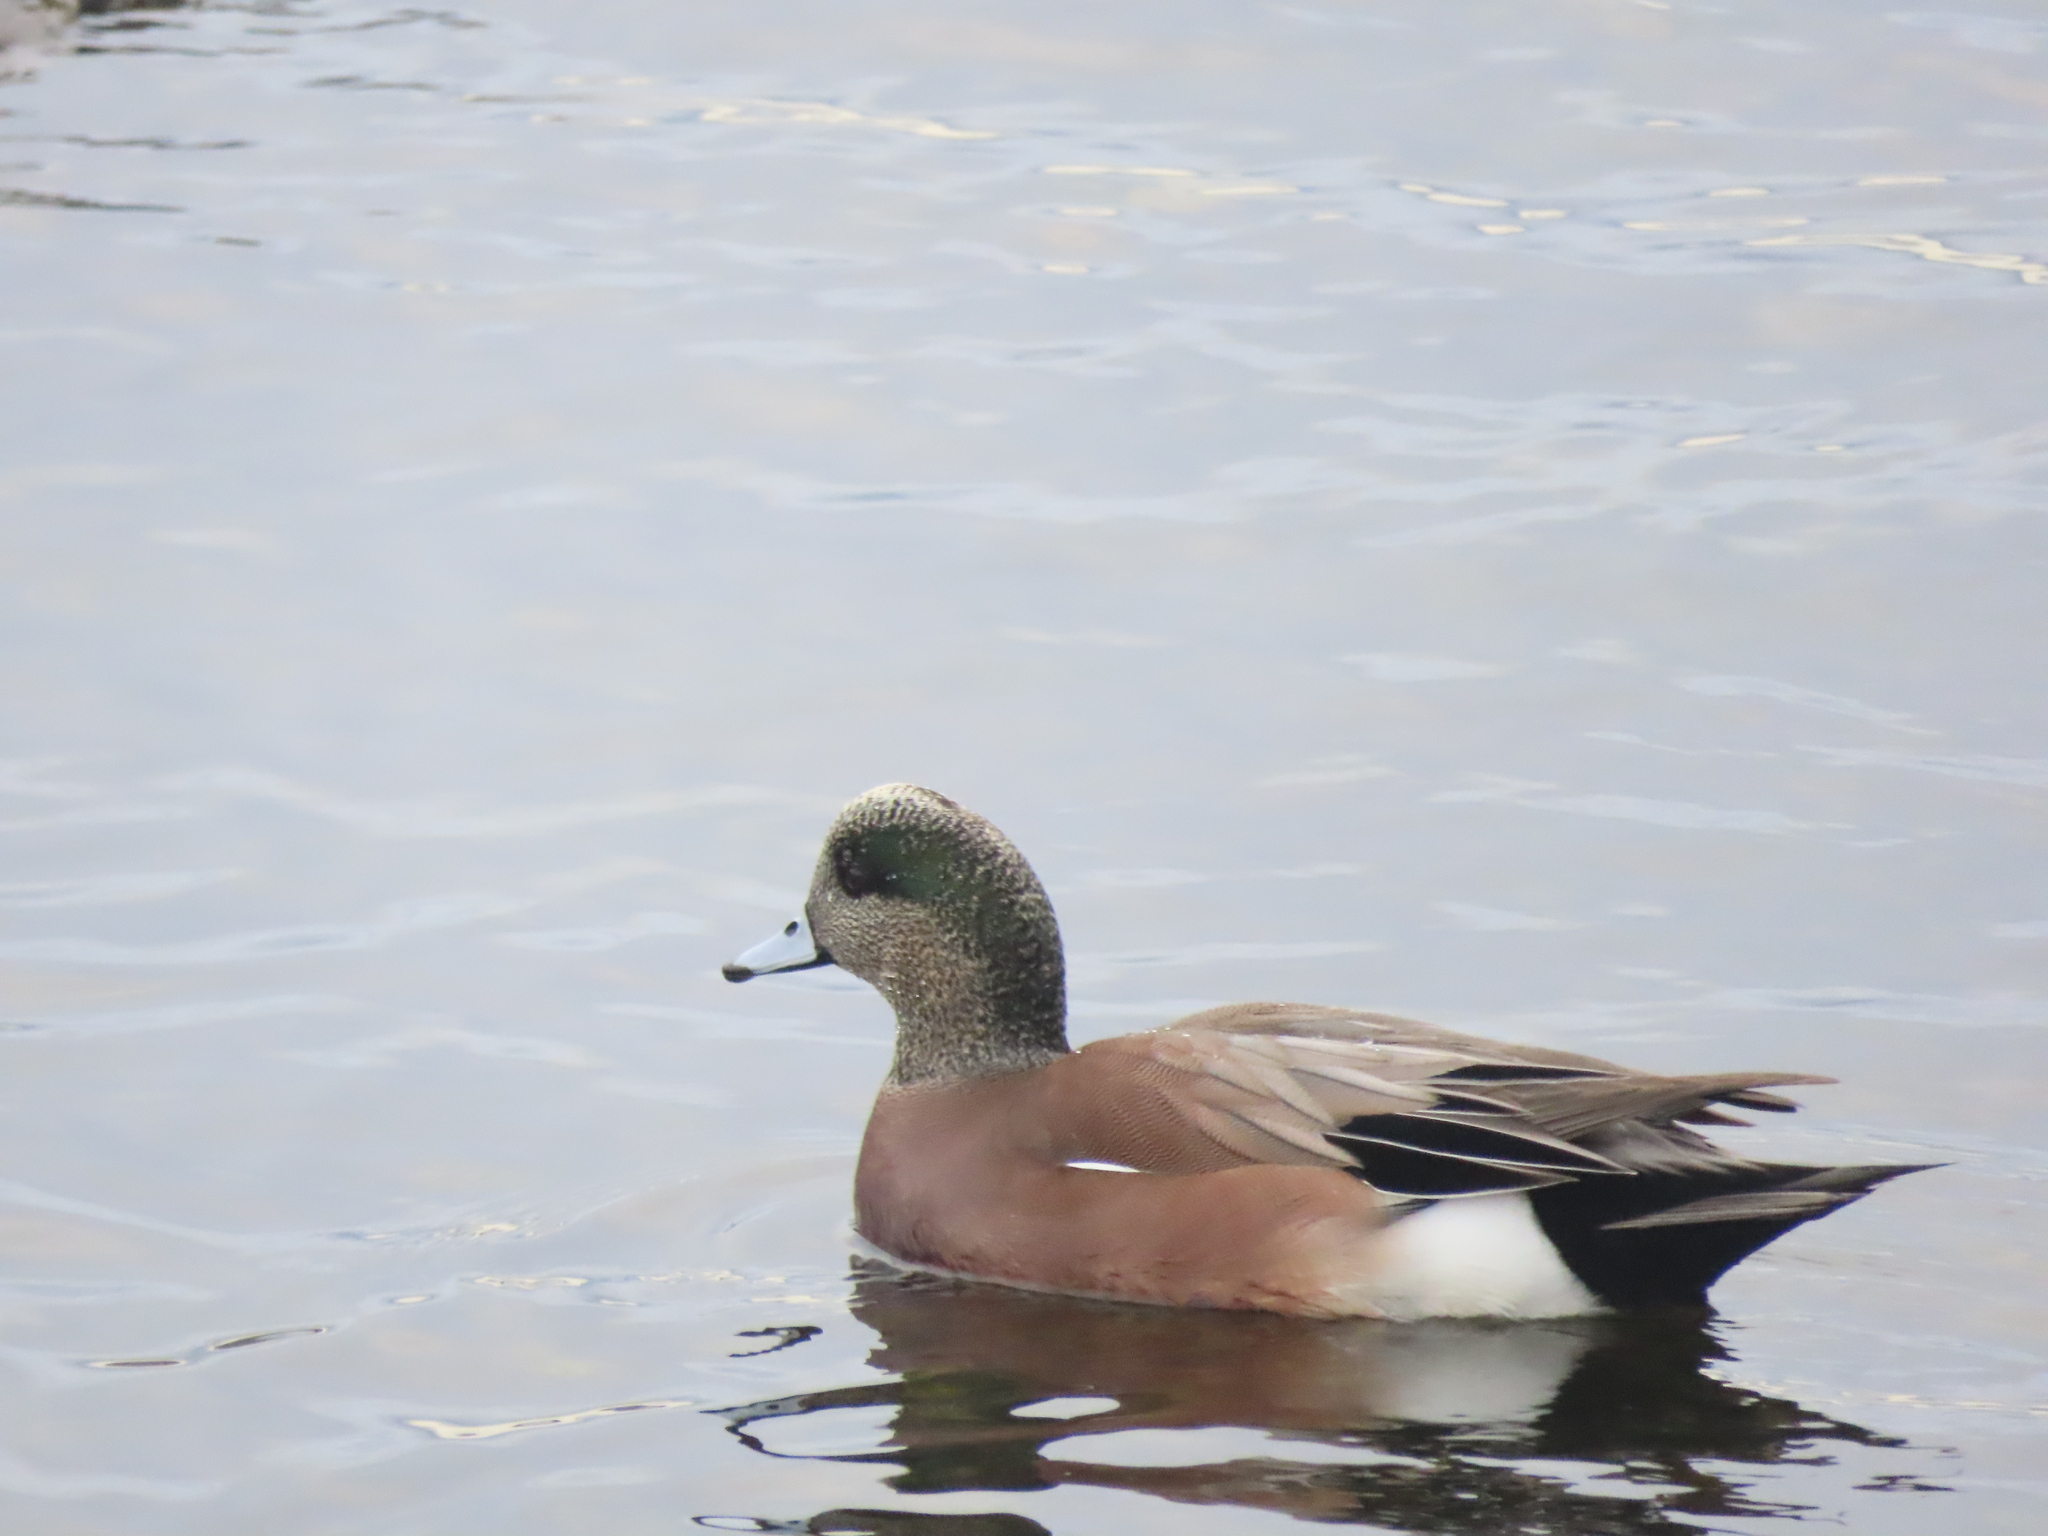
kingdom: Animalia
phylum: Chordata
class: Aves
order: Anseriformes
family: Anatidae
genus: Mareca
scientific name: Mareca americana
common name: American wigeon
